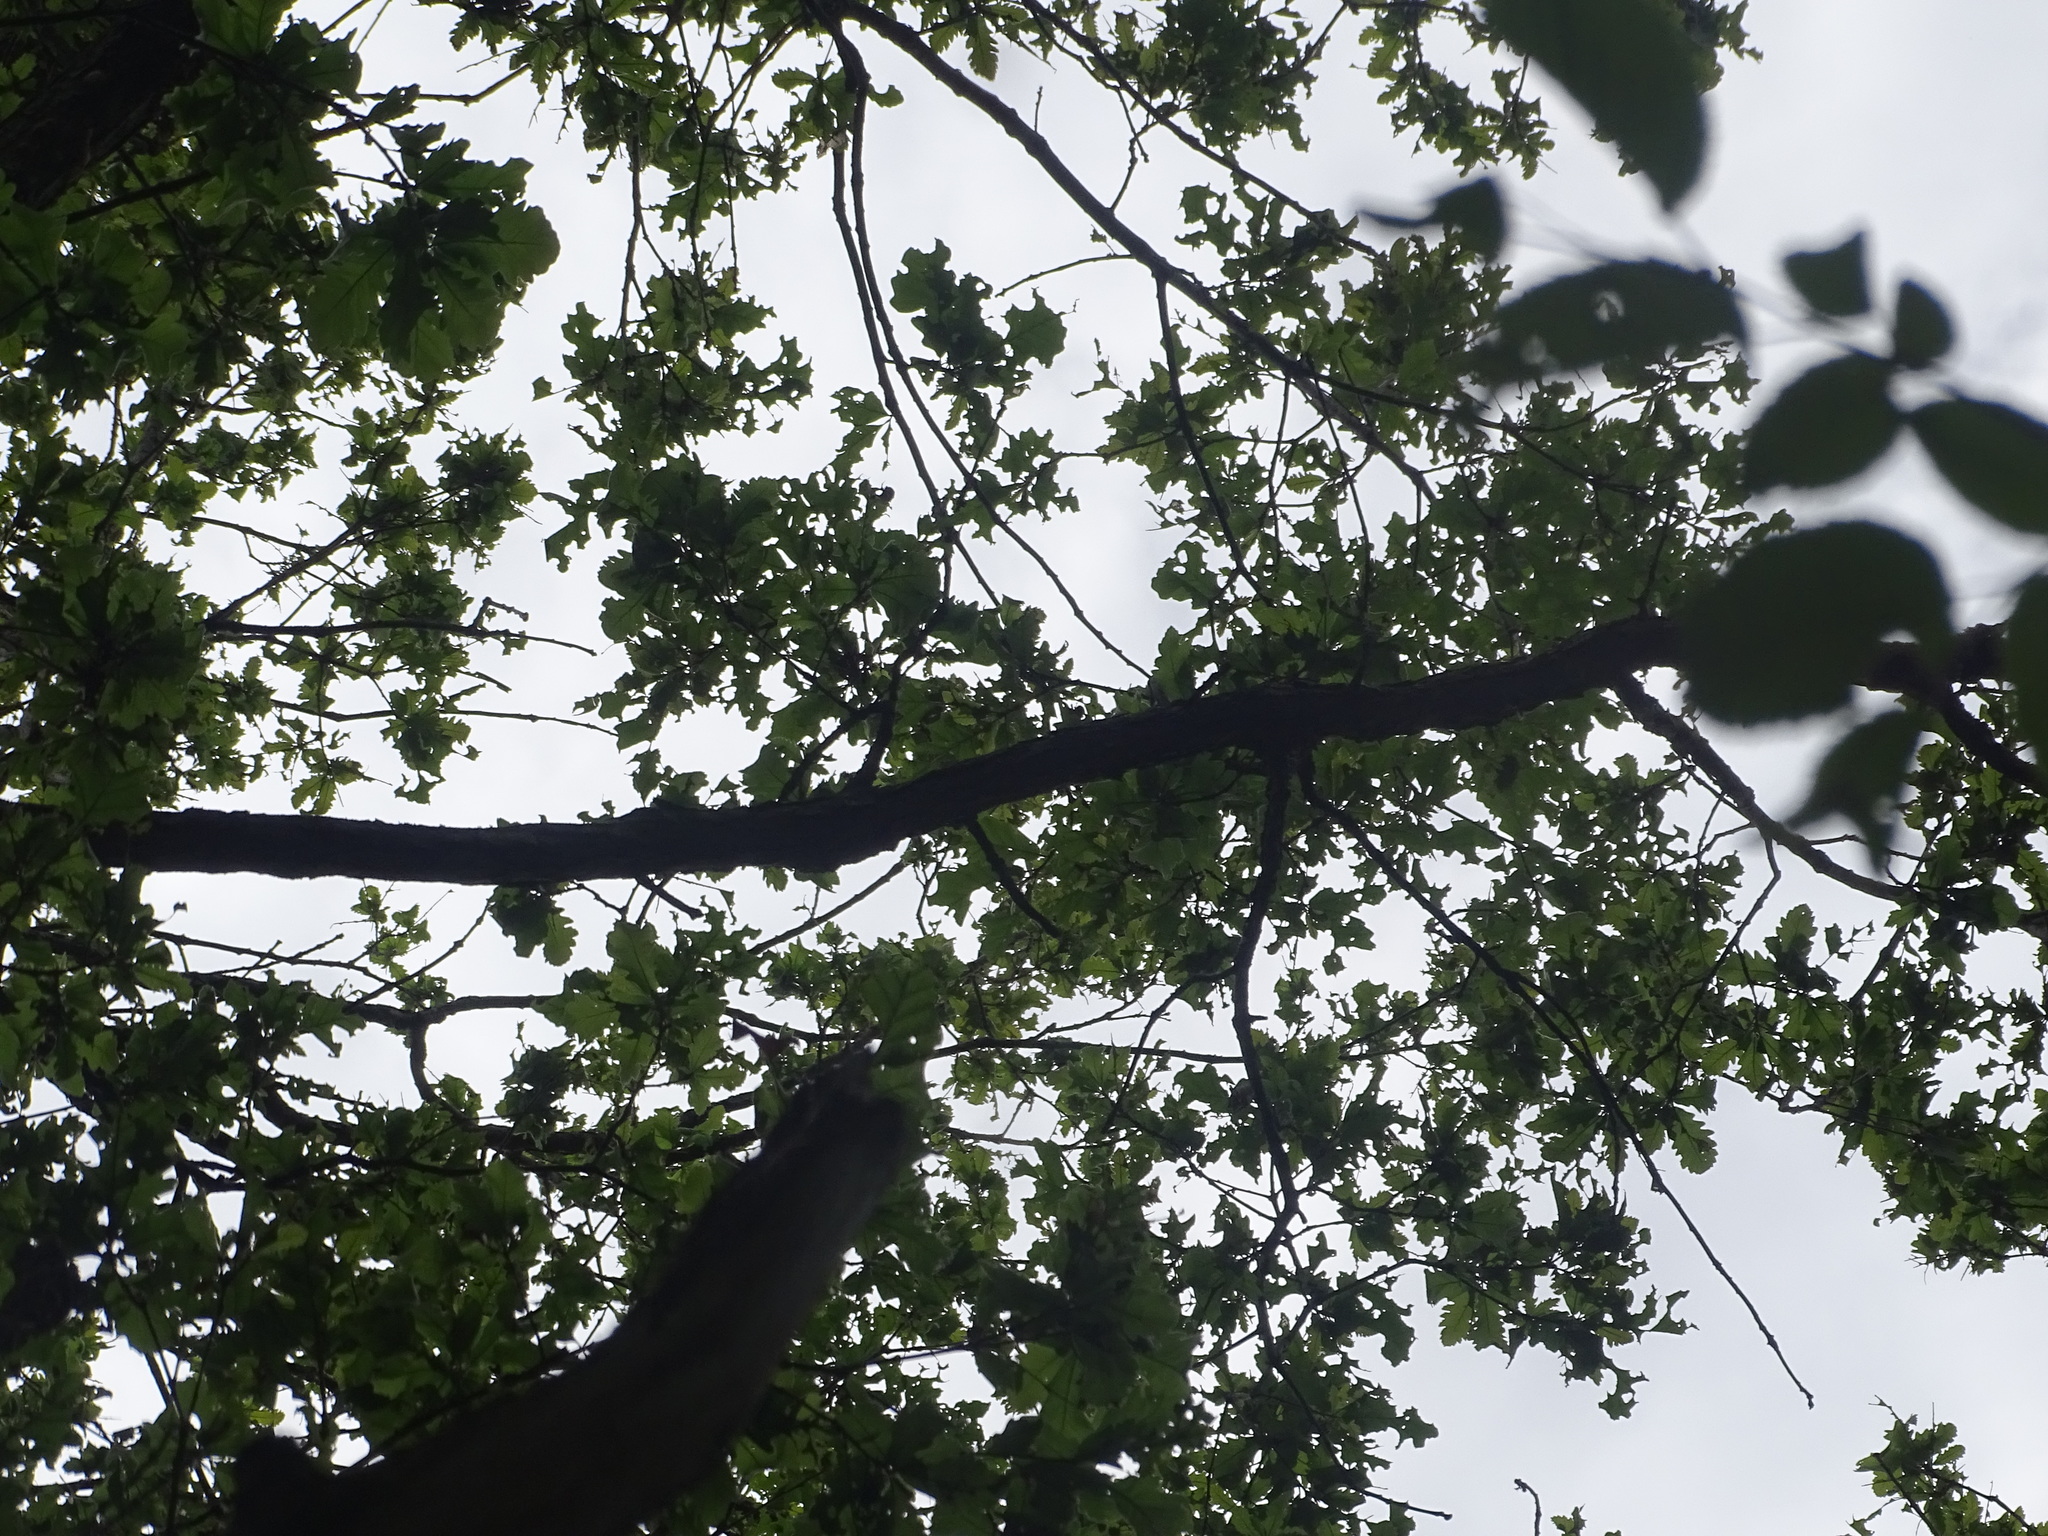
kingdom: Plantae
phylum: Tracheophyta
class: Magnoliopsida
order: Fagales
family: Fagaceae
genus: Quercus
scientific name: Quercus bicolor
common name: Swamp white oak
